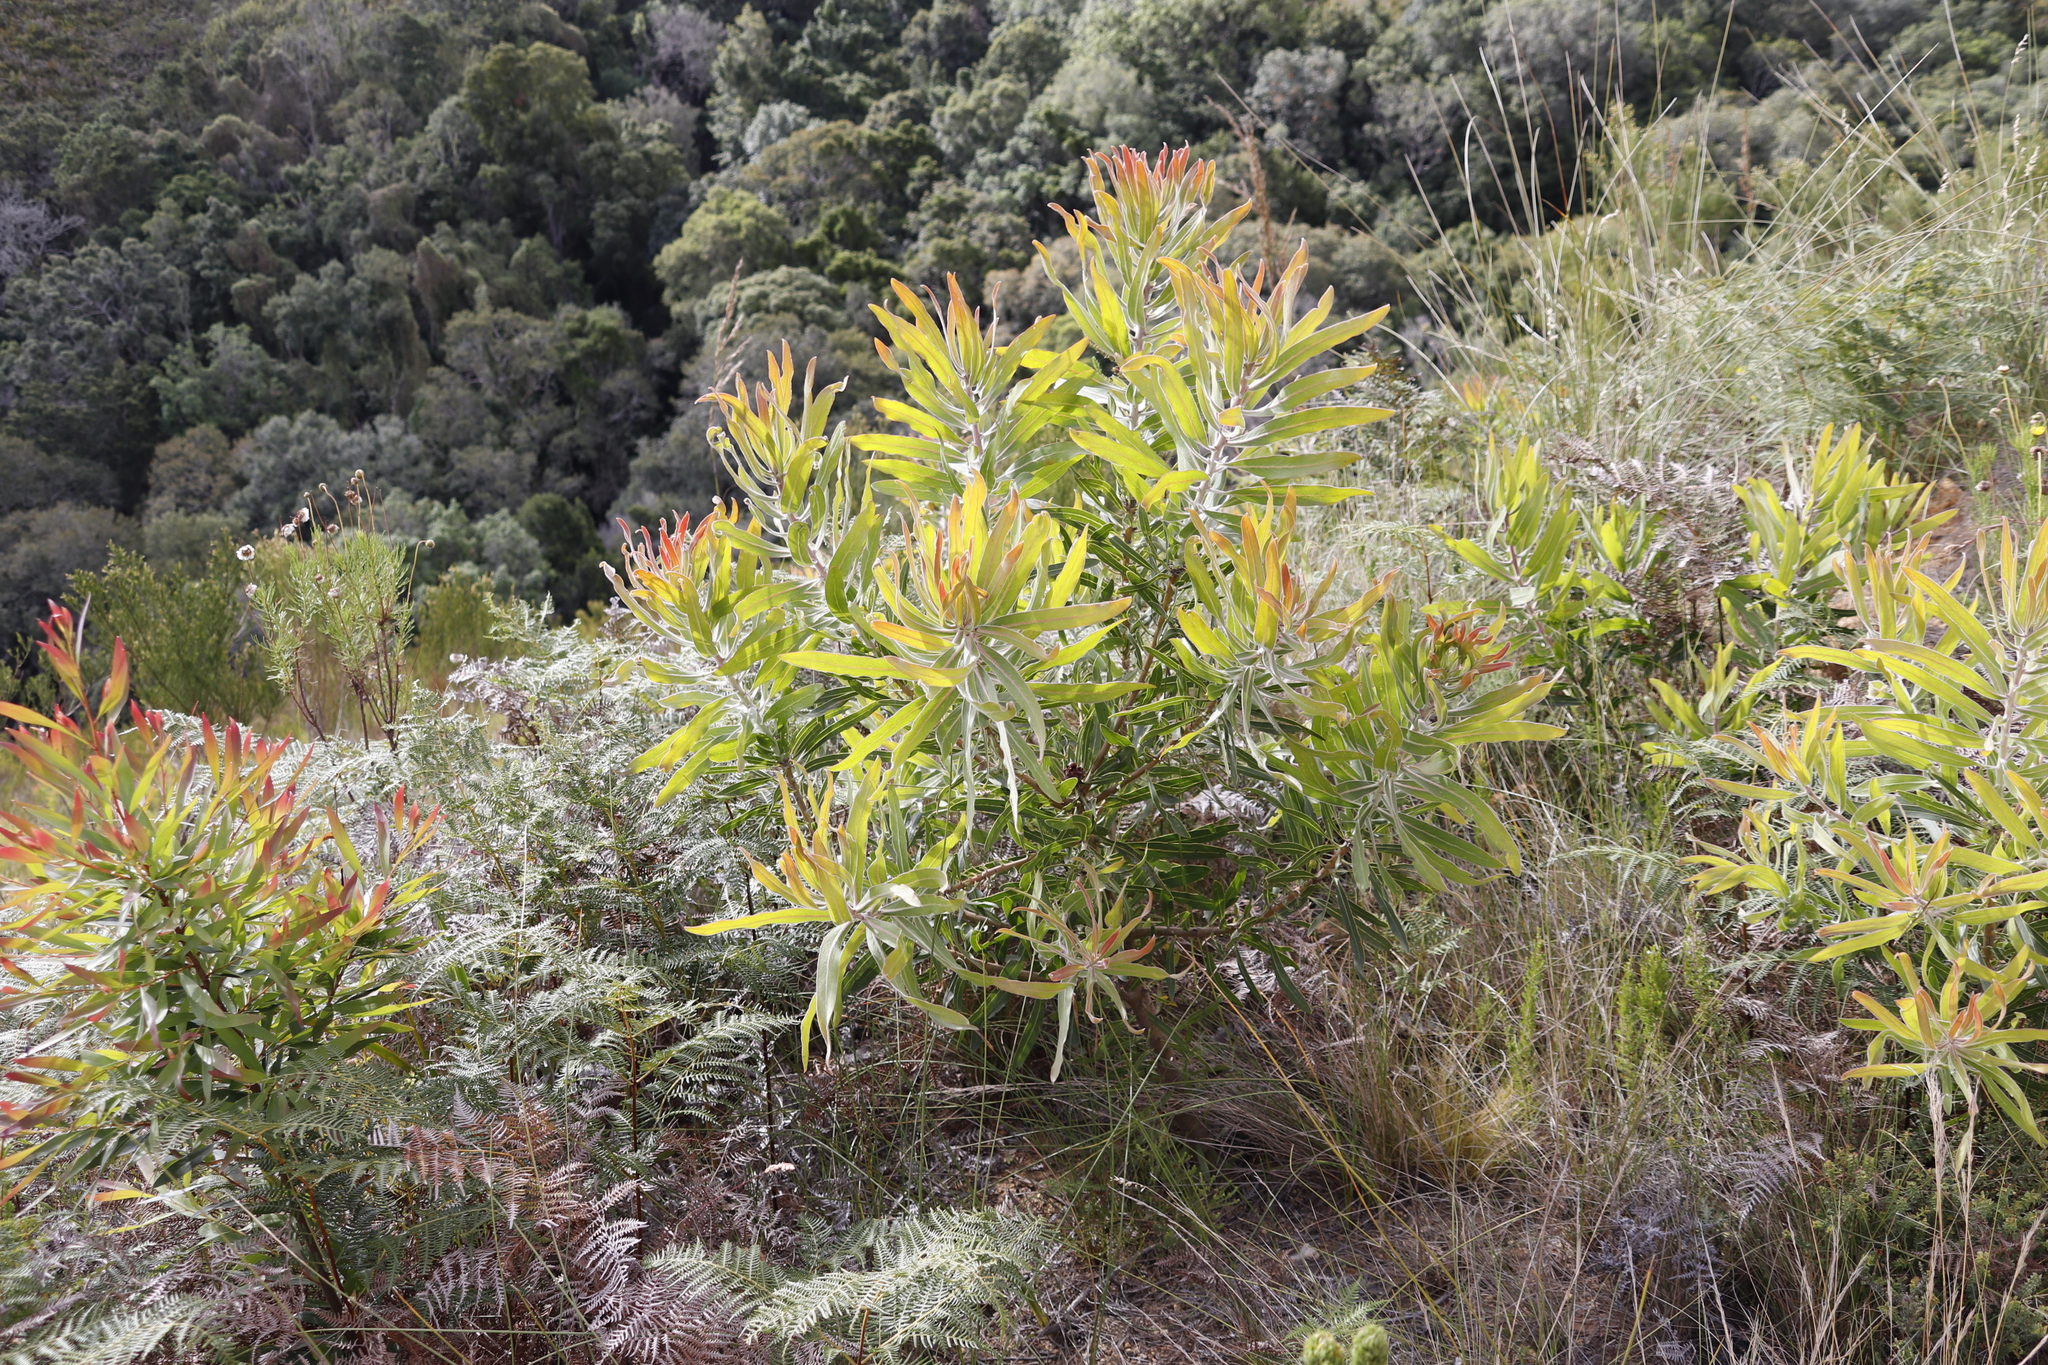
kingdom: Plantae
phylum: Tracheophyta
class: Magnoliopsida
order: Proteales
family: Proteaceae
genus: Protea
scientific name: Protea neriifolia
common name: Blue sugarbush
